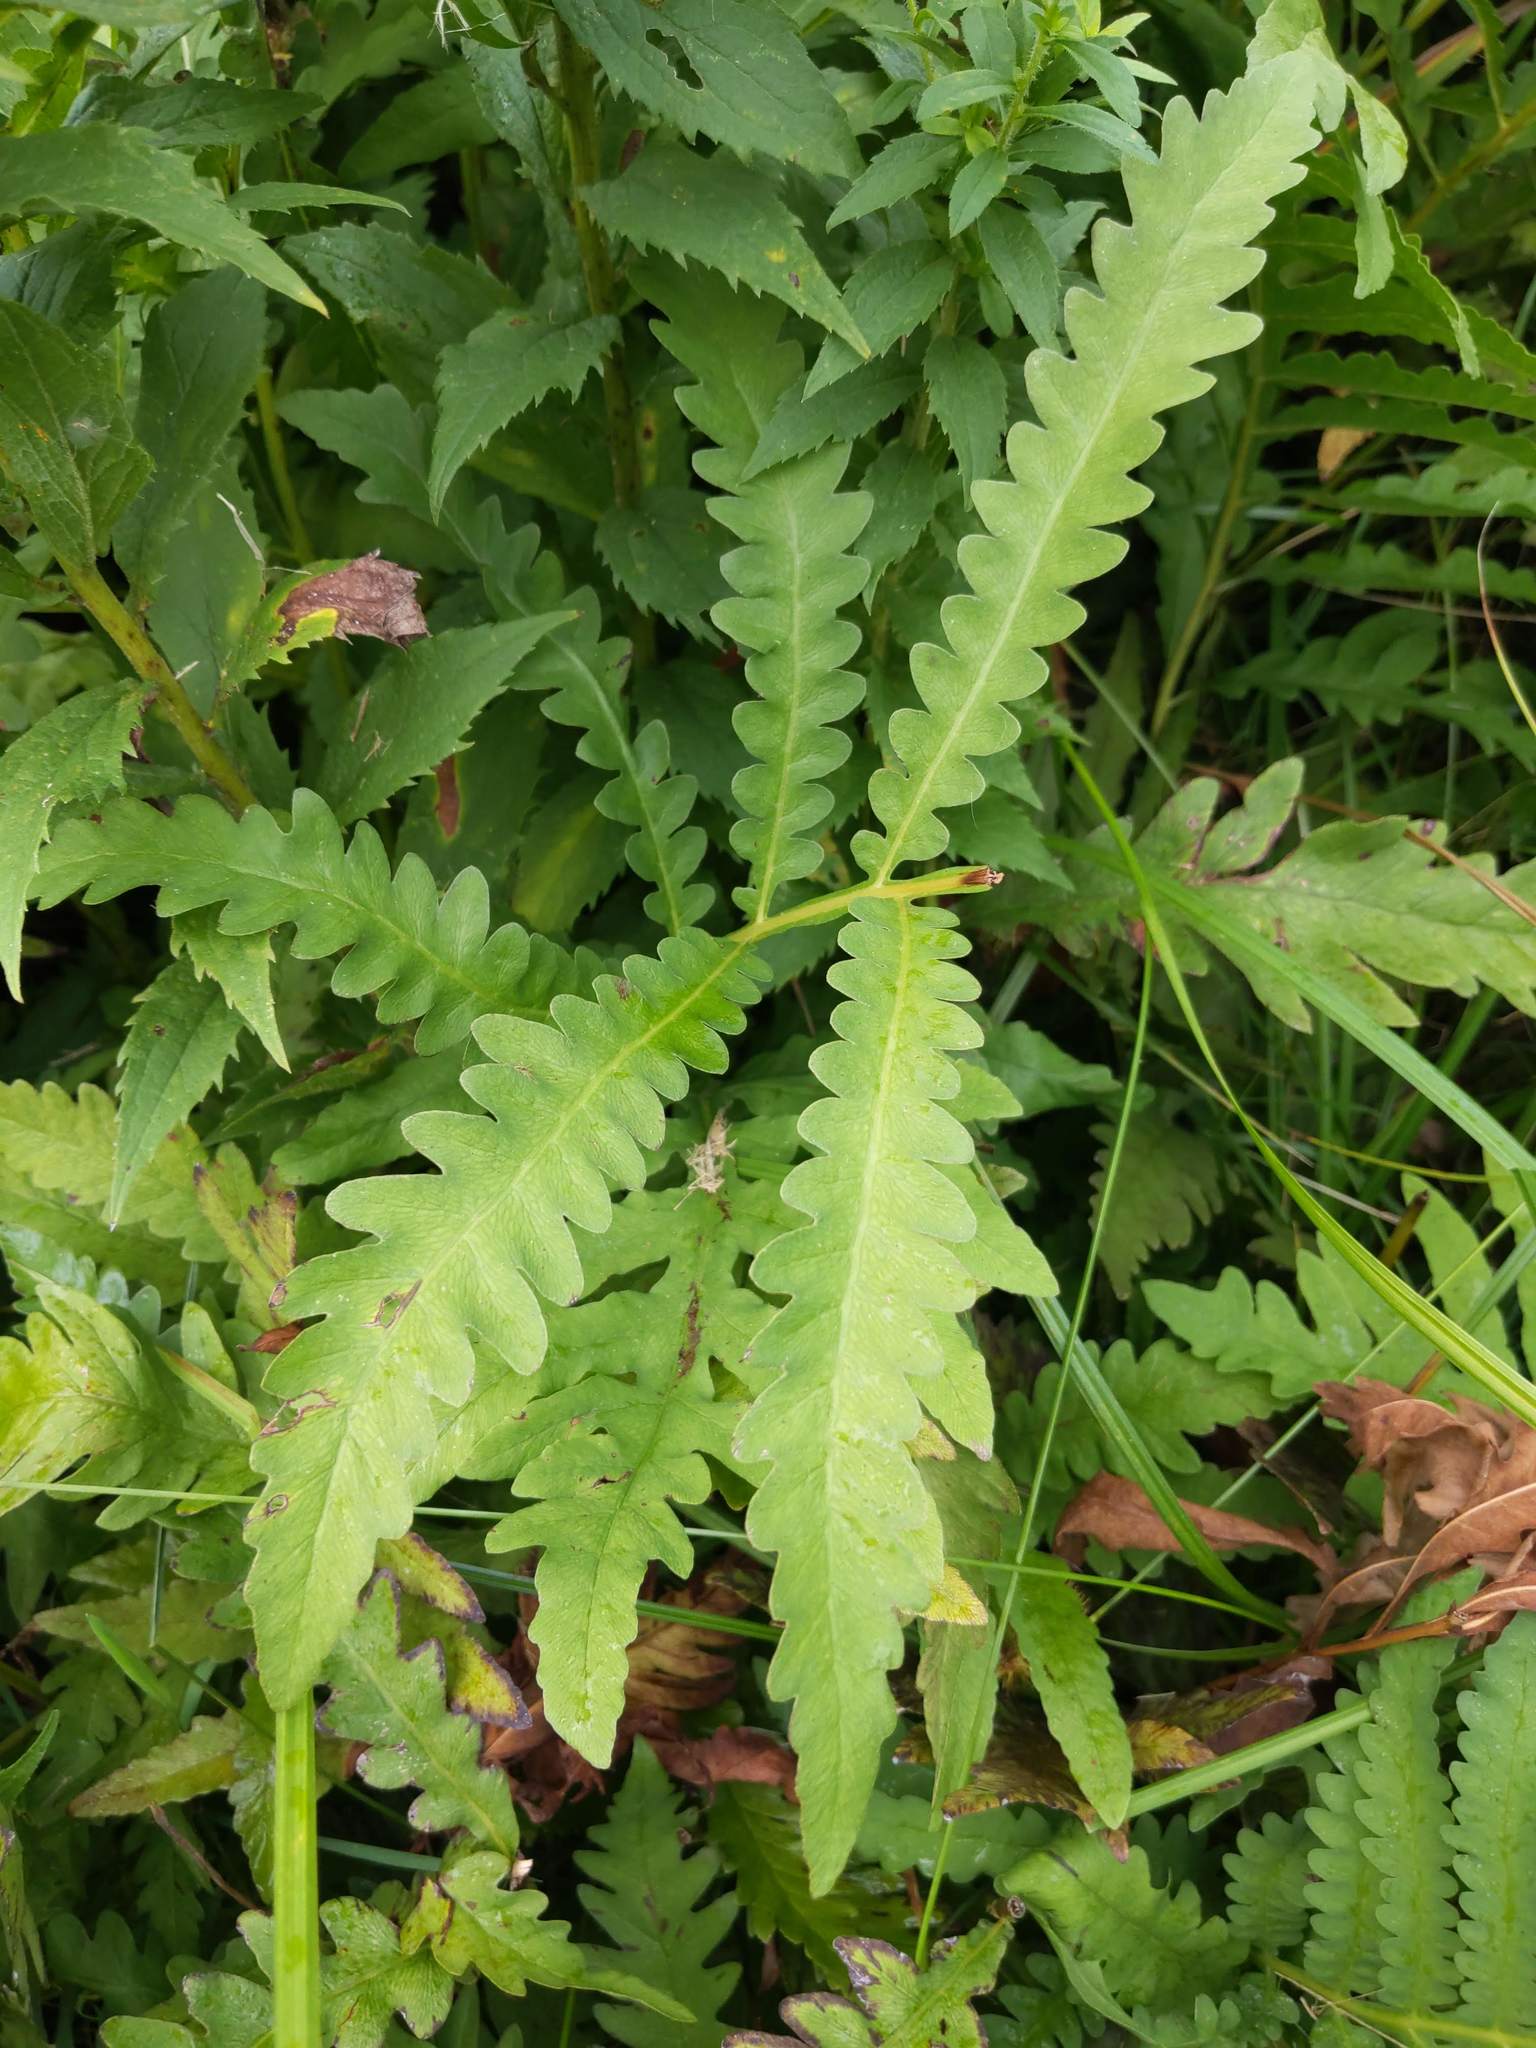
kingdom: Plantae
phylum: Tracheophyta
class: Polypodiopsida
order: Polypodiales
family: Onocleaceae
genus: Onoclea
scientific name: Onoclea sensibilis
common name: Sensitive fern
